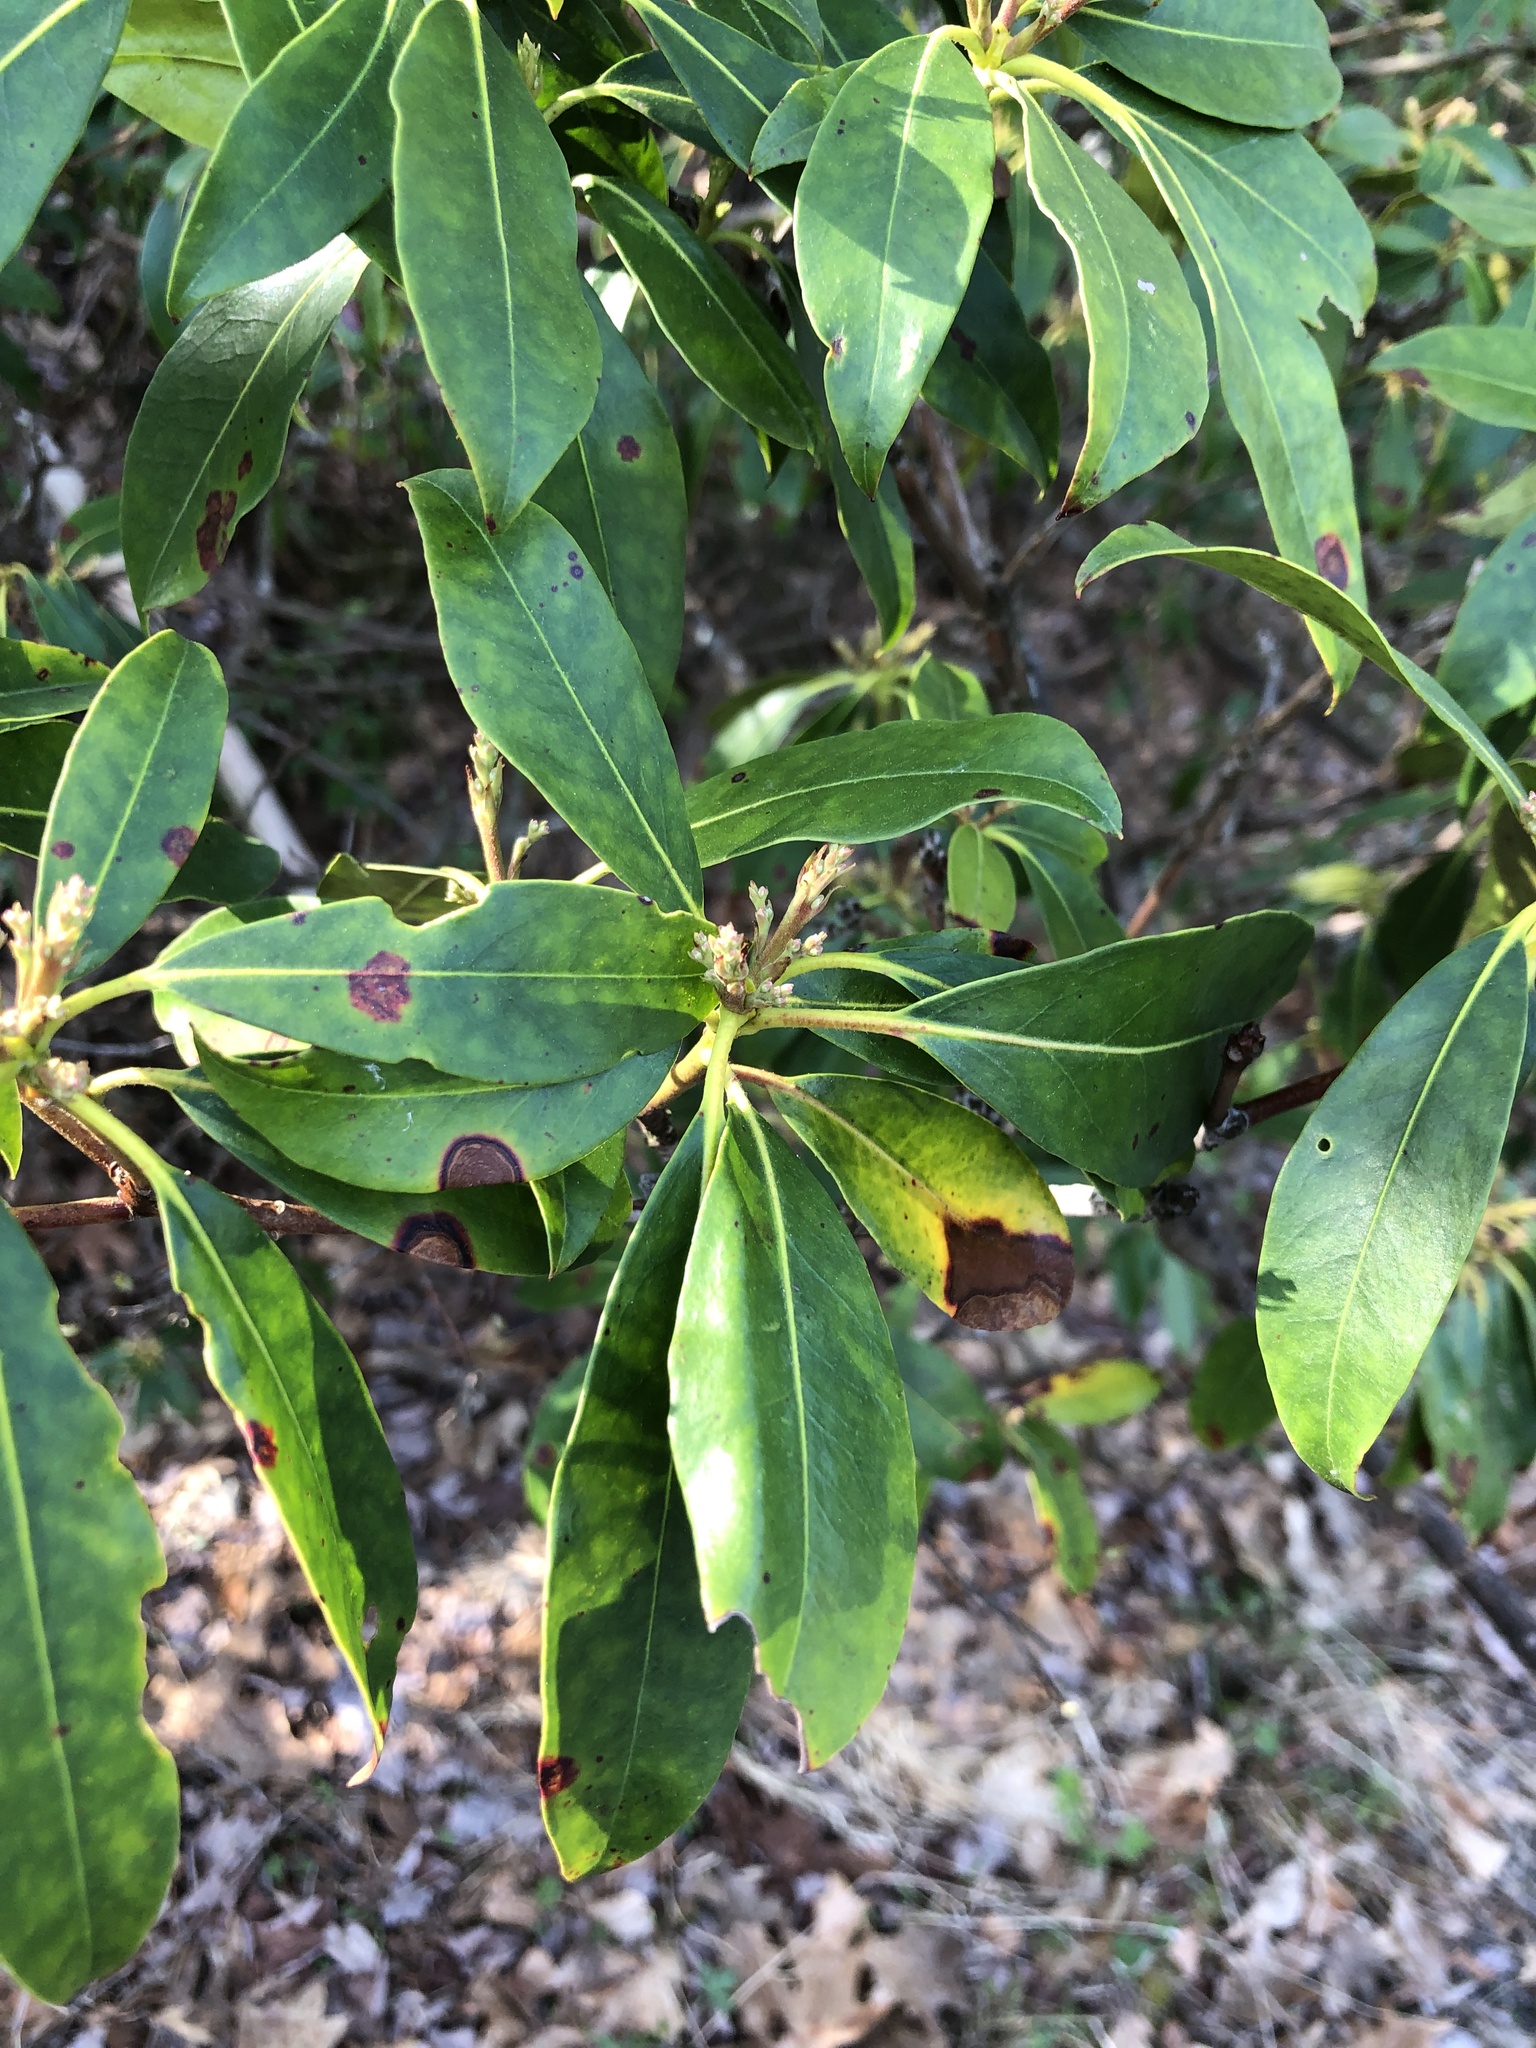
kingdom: Plantae
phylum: Tracheophyta
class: Magnoliopsida
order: Ericales
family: Ericaceae
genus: Kalmia
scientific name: Kalmia latifolia
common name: Mountain-laurel
